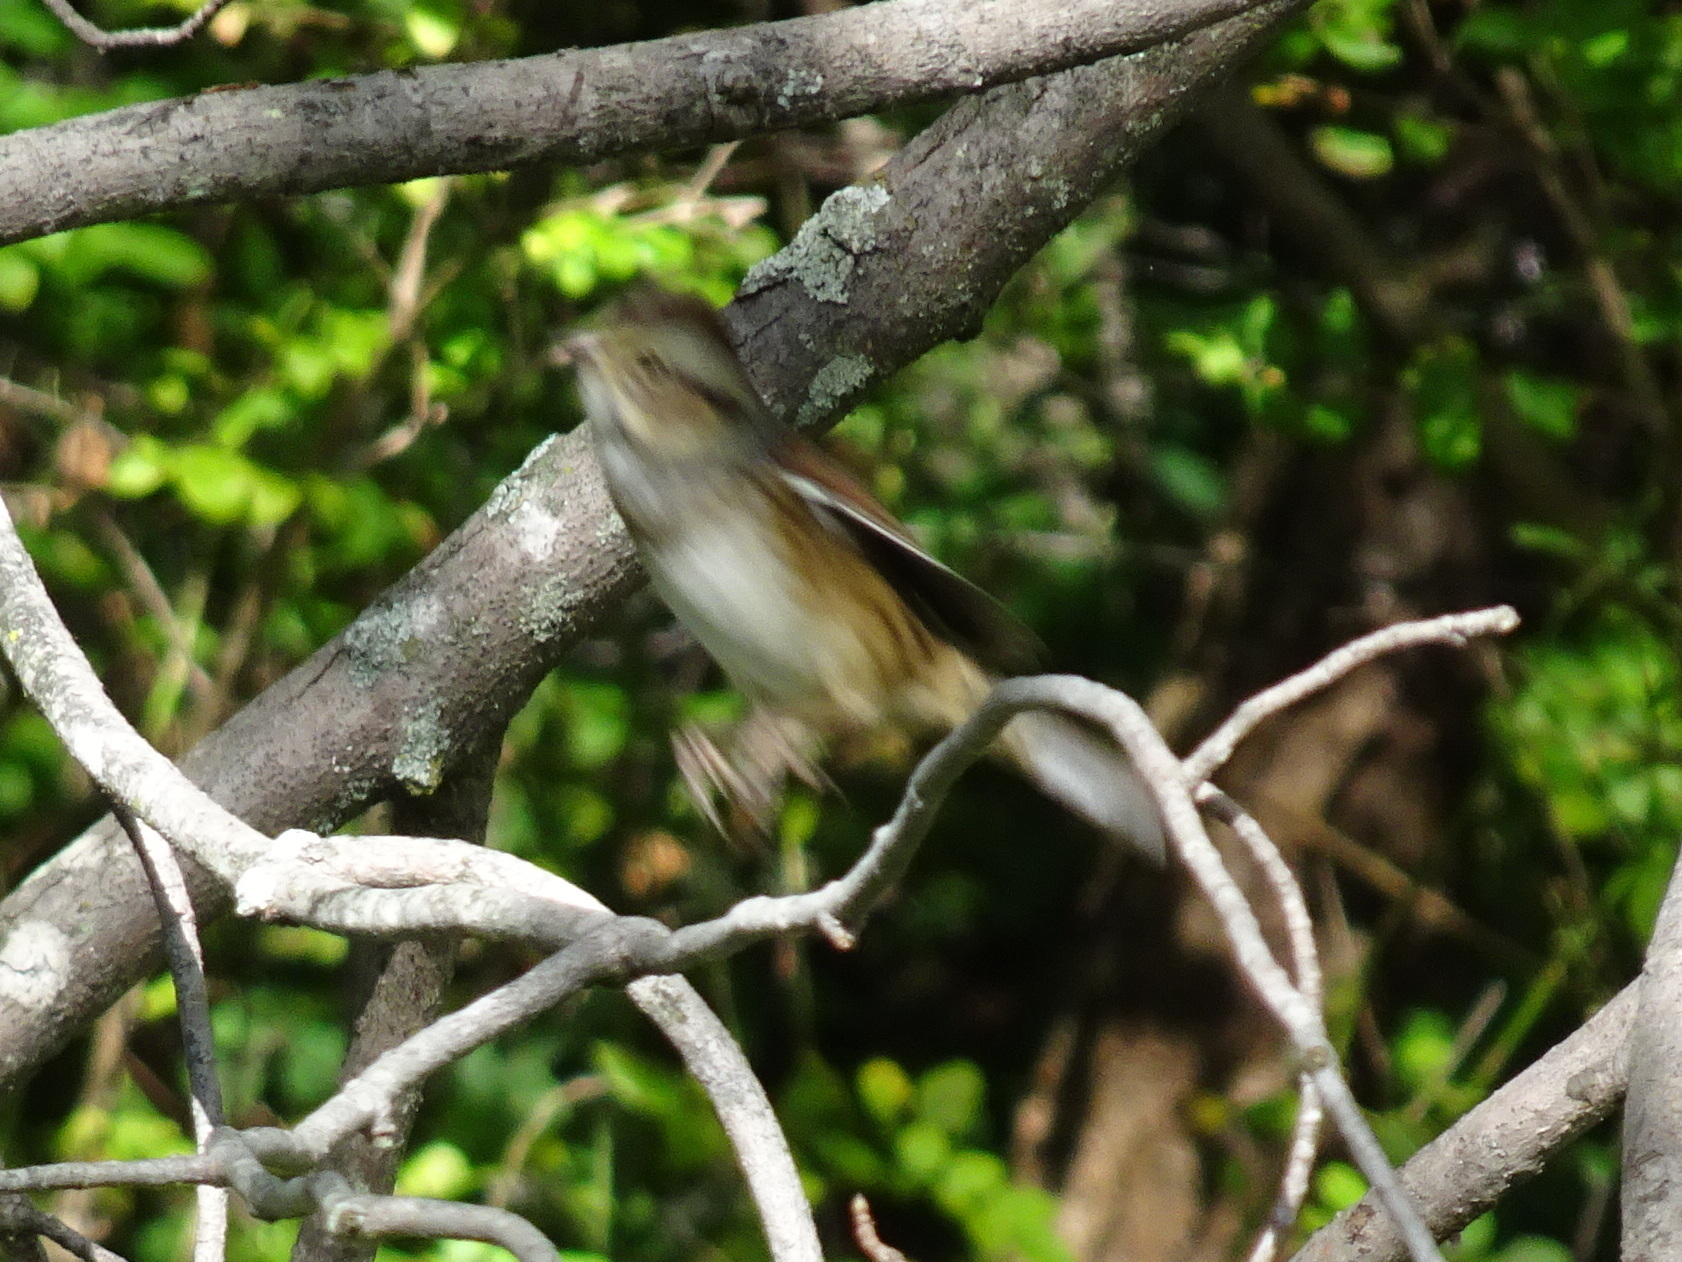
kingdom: Animalia
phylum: Chordata
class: Aves
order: Passeriformes
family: Passerellidae
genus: Melospiza
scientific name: Melospiza georgiana
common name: Swamp sparrow
